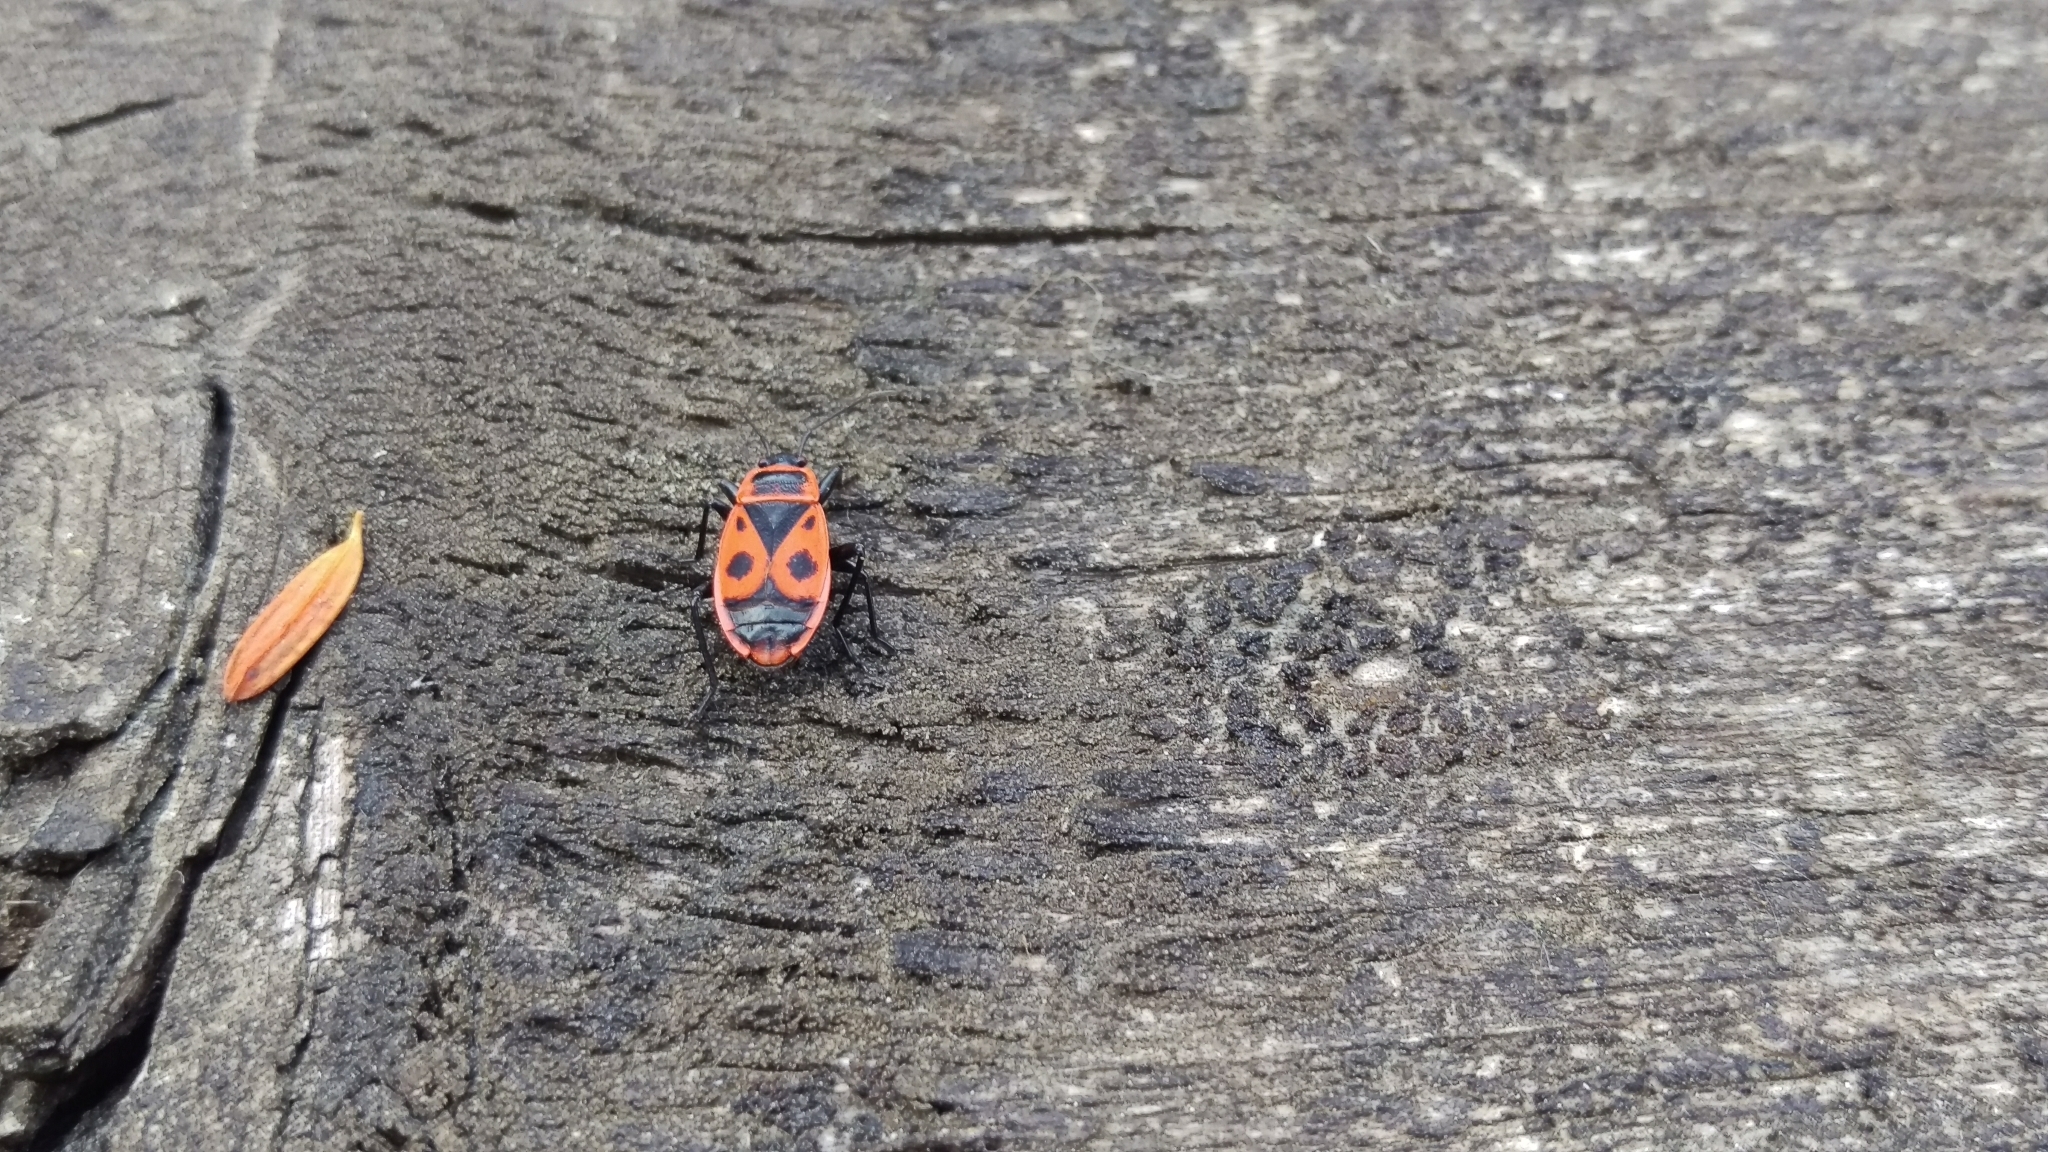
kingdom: Animalia
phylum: Arthropoda
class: Insecta
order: Hemiptera
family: Pyrrhocoridae
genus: Pyrrhocoris
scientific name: Pyrrhocoris apterus
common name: Firebug
